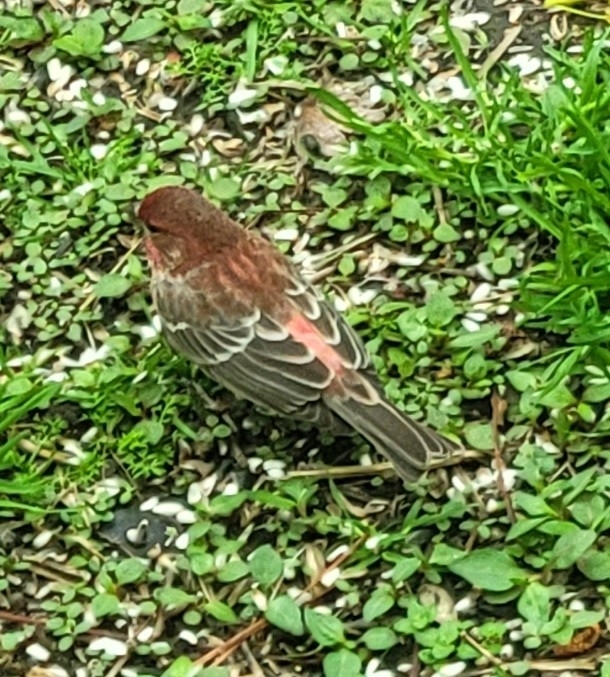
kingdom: Animalia
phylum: Chordata
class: Aves
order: Passeriformes
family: Fringillidae
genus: Haemorhous
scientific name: Haemorhous mexicanus
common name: House finch
